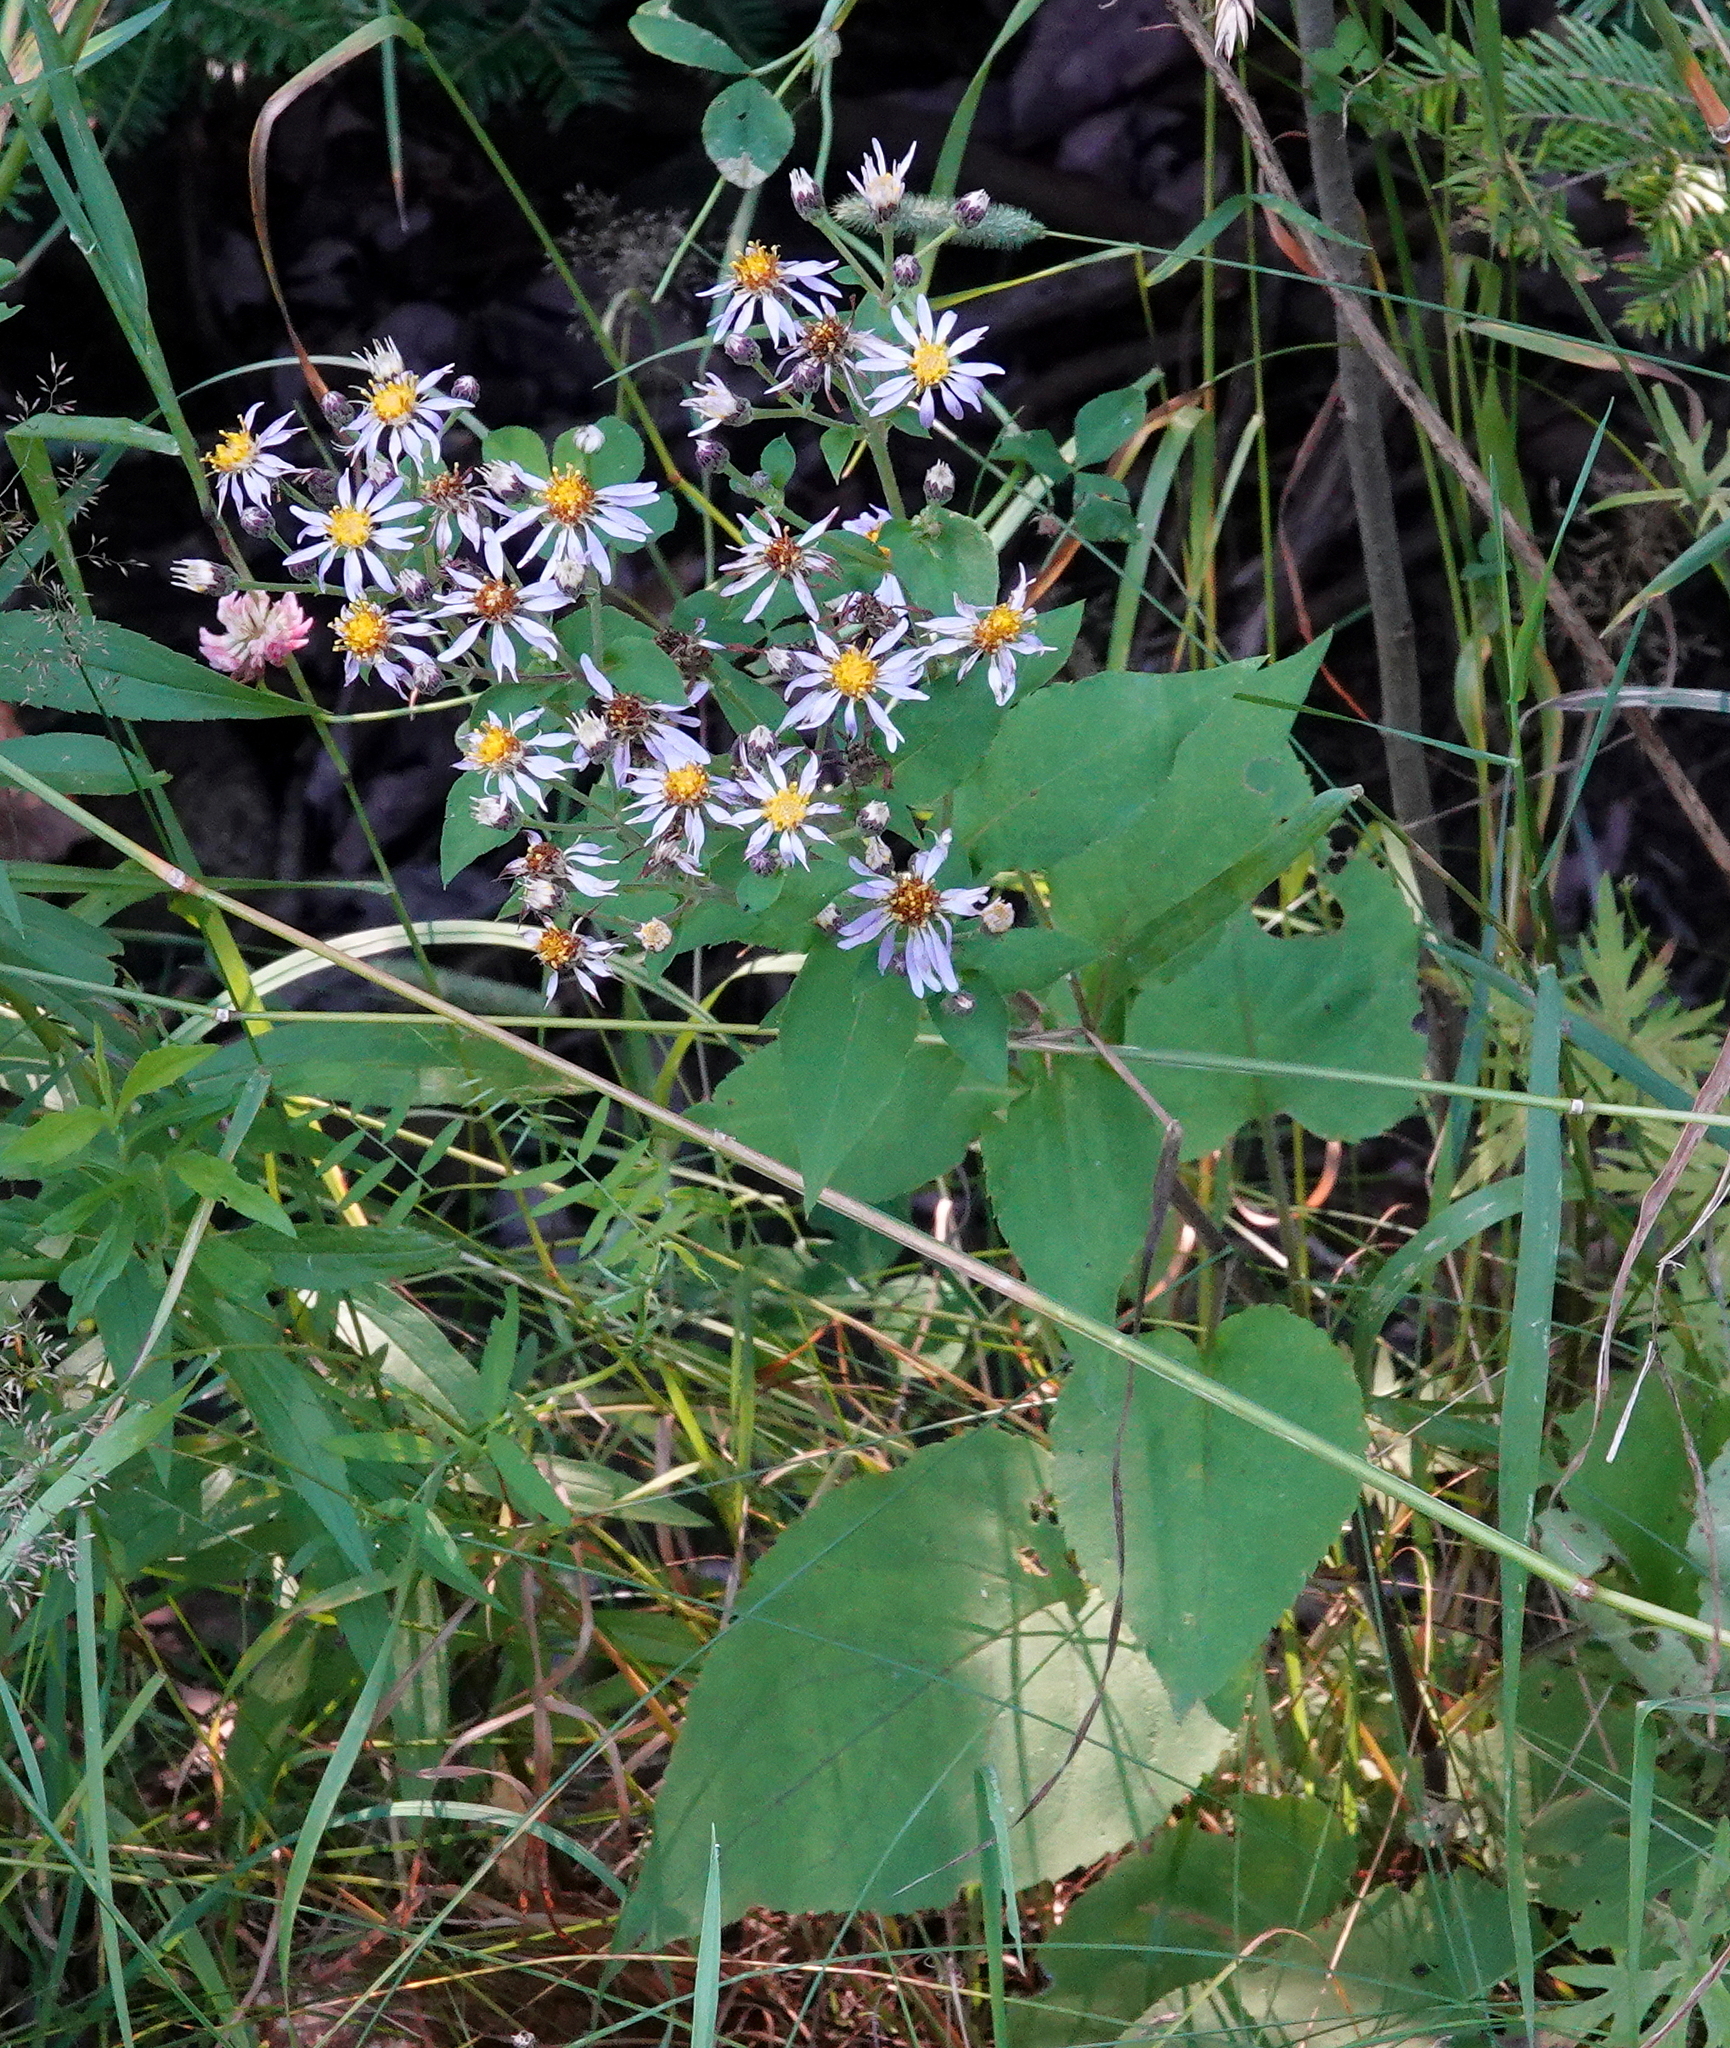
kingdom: Plantae
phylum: Tracheophyta
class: Magnoliopsida
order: Asterales
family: Asteraceae
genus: Eurybia
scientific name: Eurybia macrophylla
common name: Big-leaved aster
